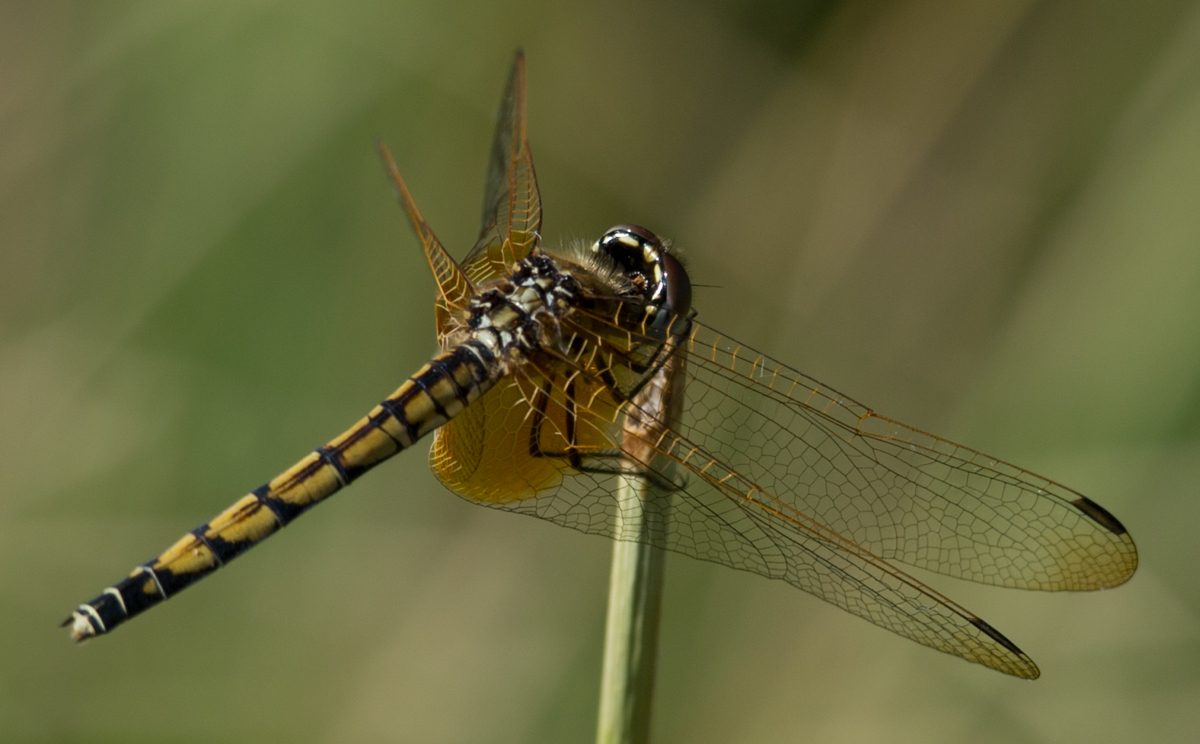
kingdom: Animalia
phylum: Arthropoda
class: Insecta
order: Odonata
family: Libellulidae
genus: Trithemis
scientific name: Trithemis monardi
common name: Monard's dropwing
